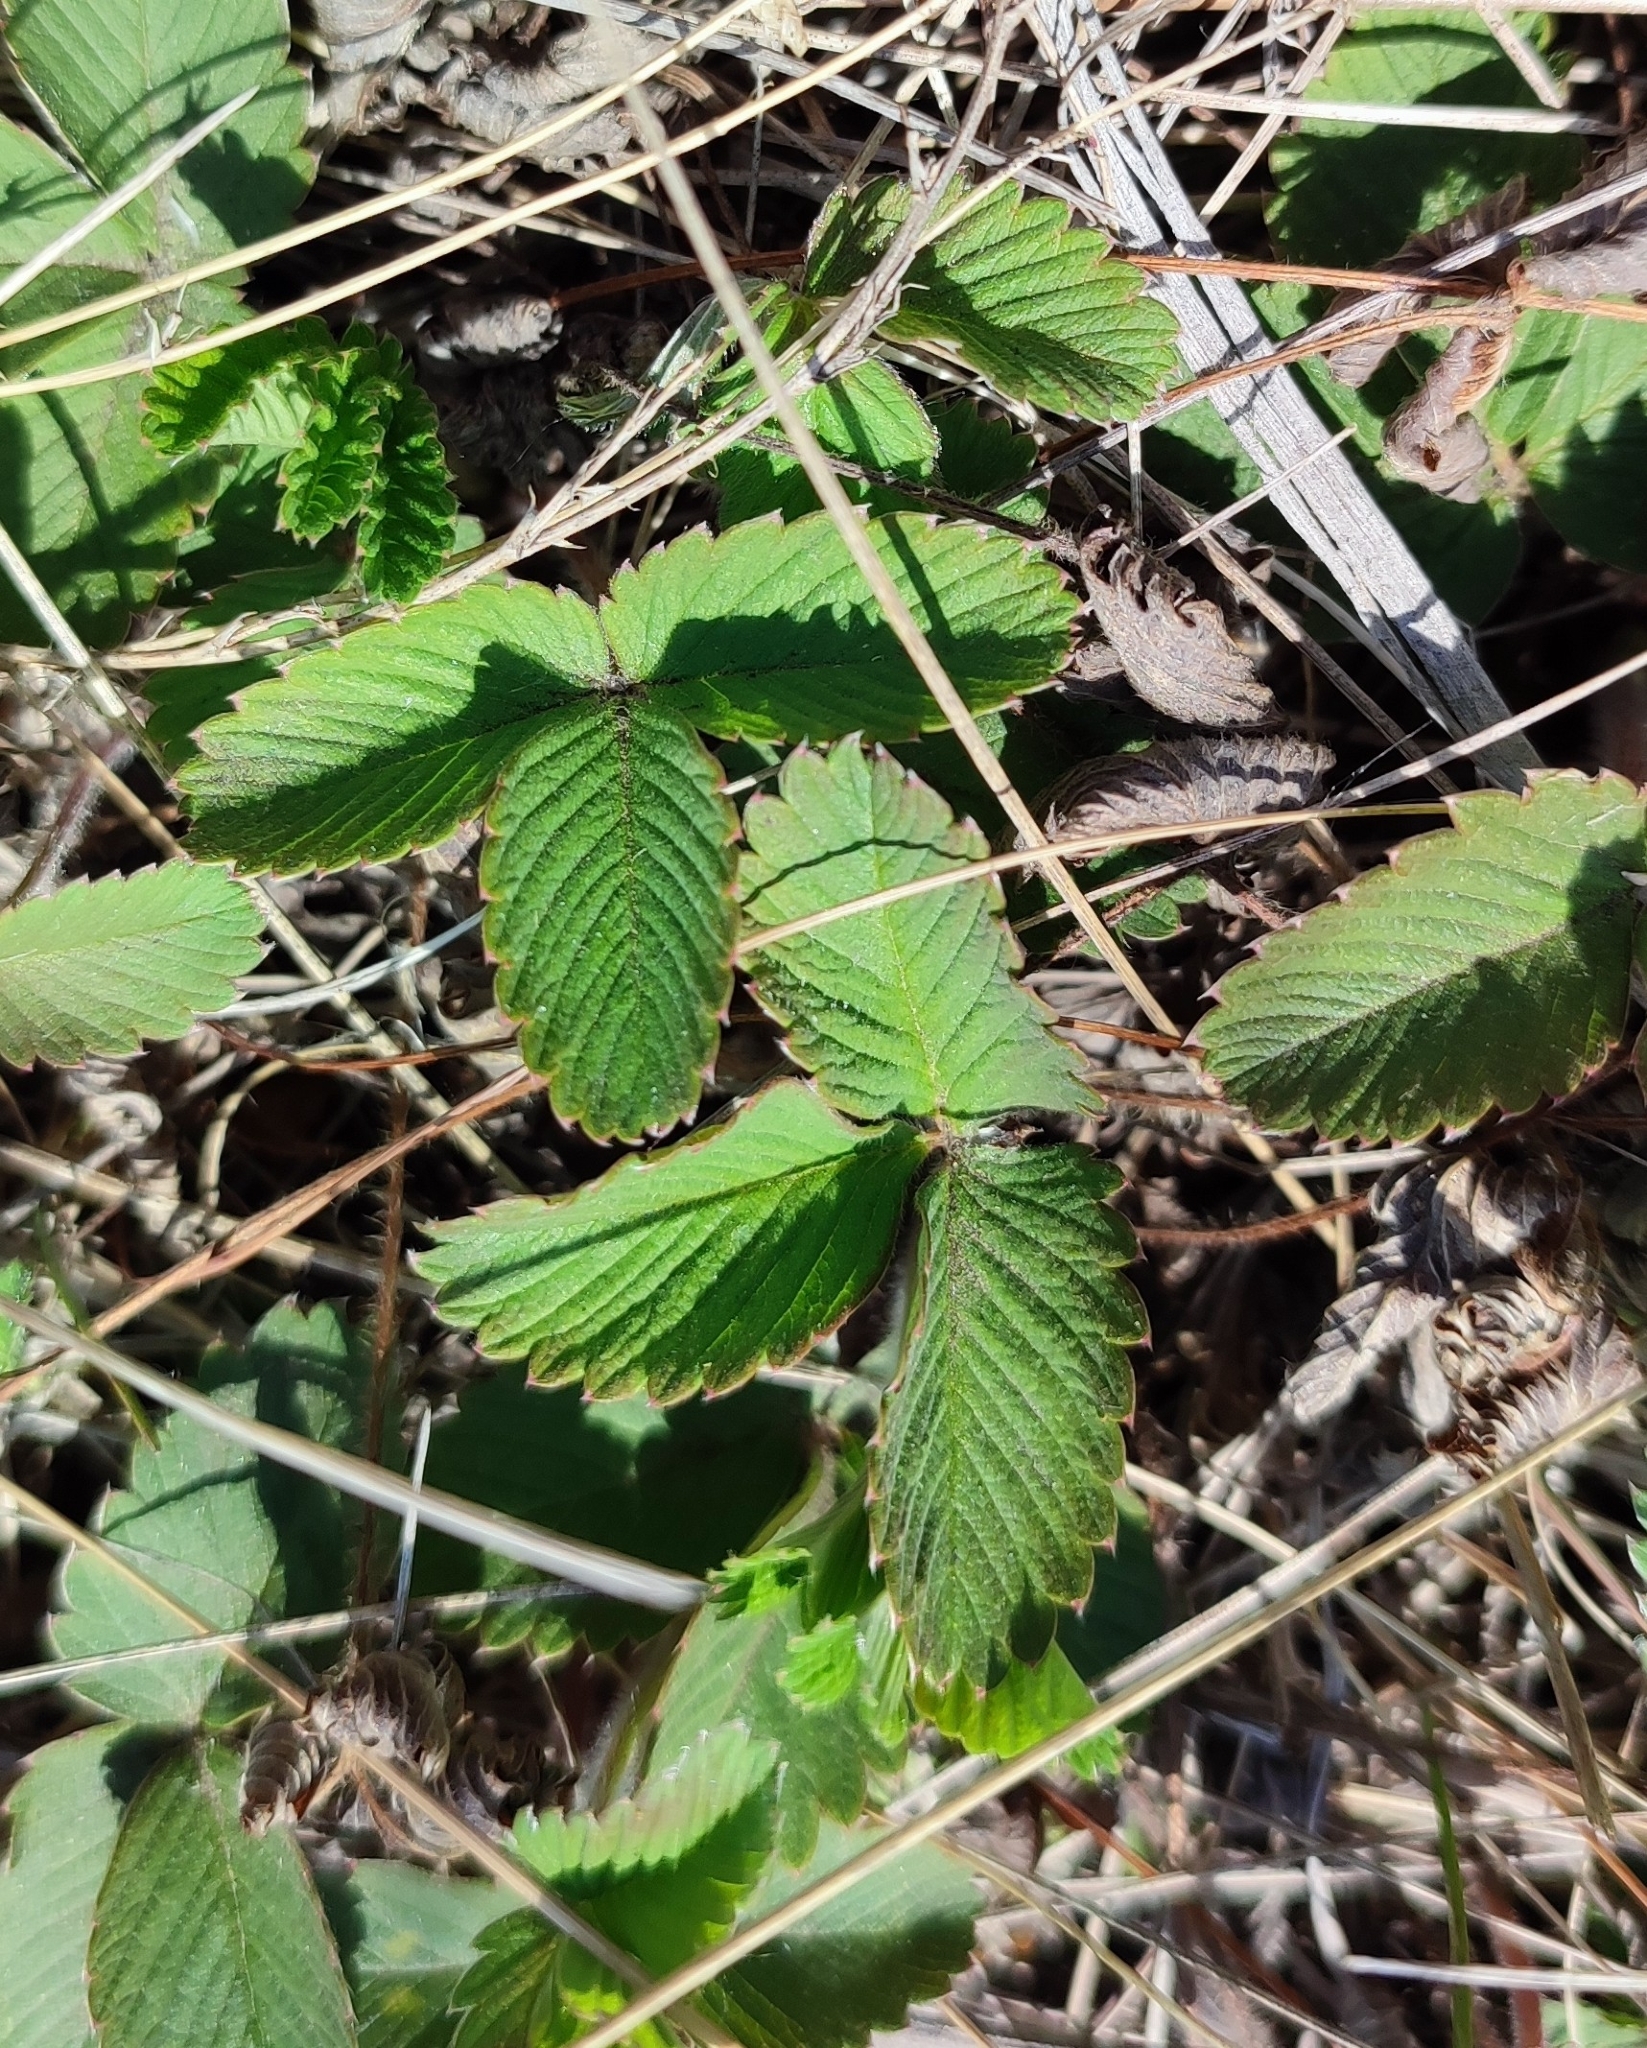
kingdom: Plantae
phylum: Tracheophyta
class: Magnoliopsida
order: Rosales
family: Rosaceae
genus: Fragaria
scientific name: Fragaria viridis
